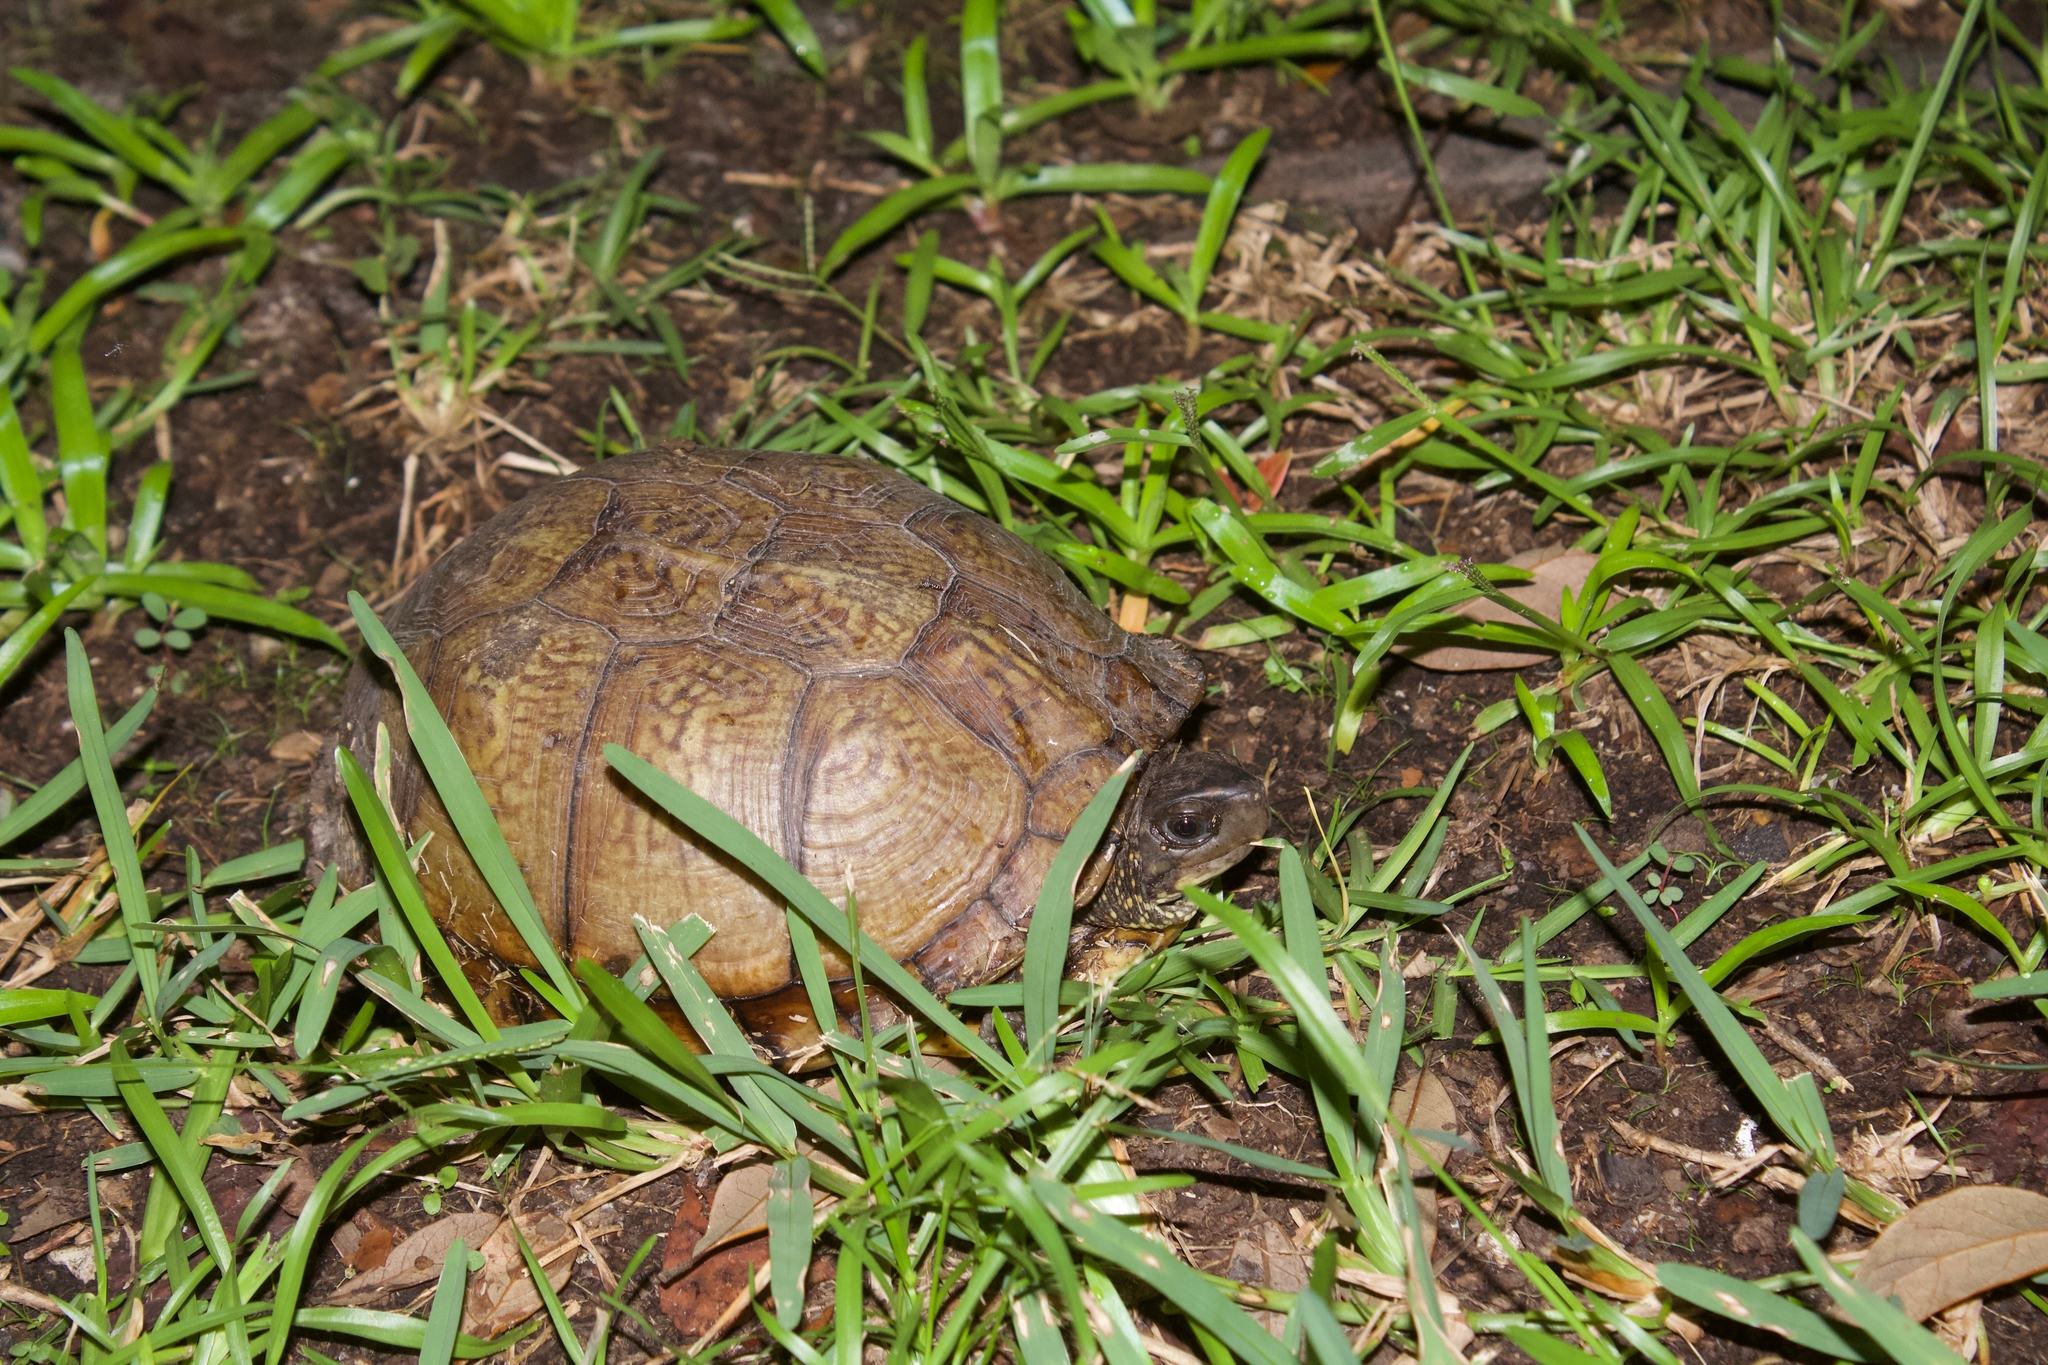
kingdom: Animalia
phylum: Chordata
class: Testudines
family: Emydidae
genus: Terrapene
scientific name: Terrapene carolina
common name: Common box turtle
